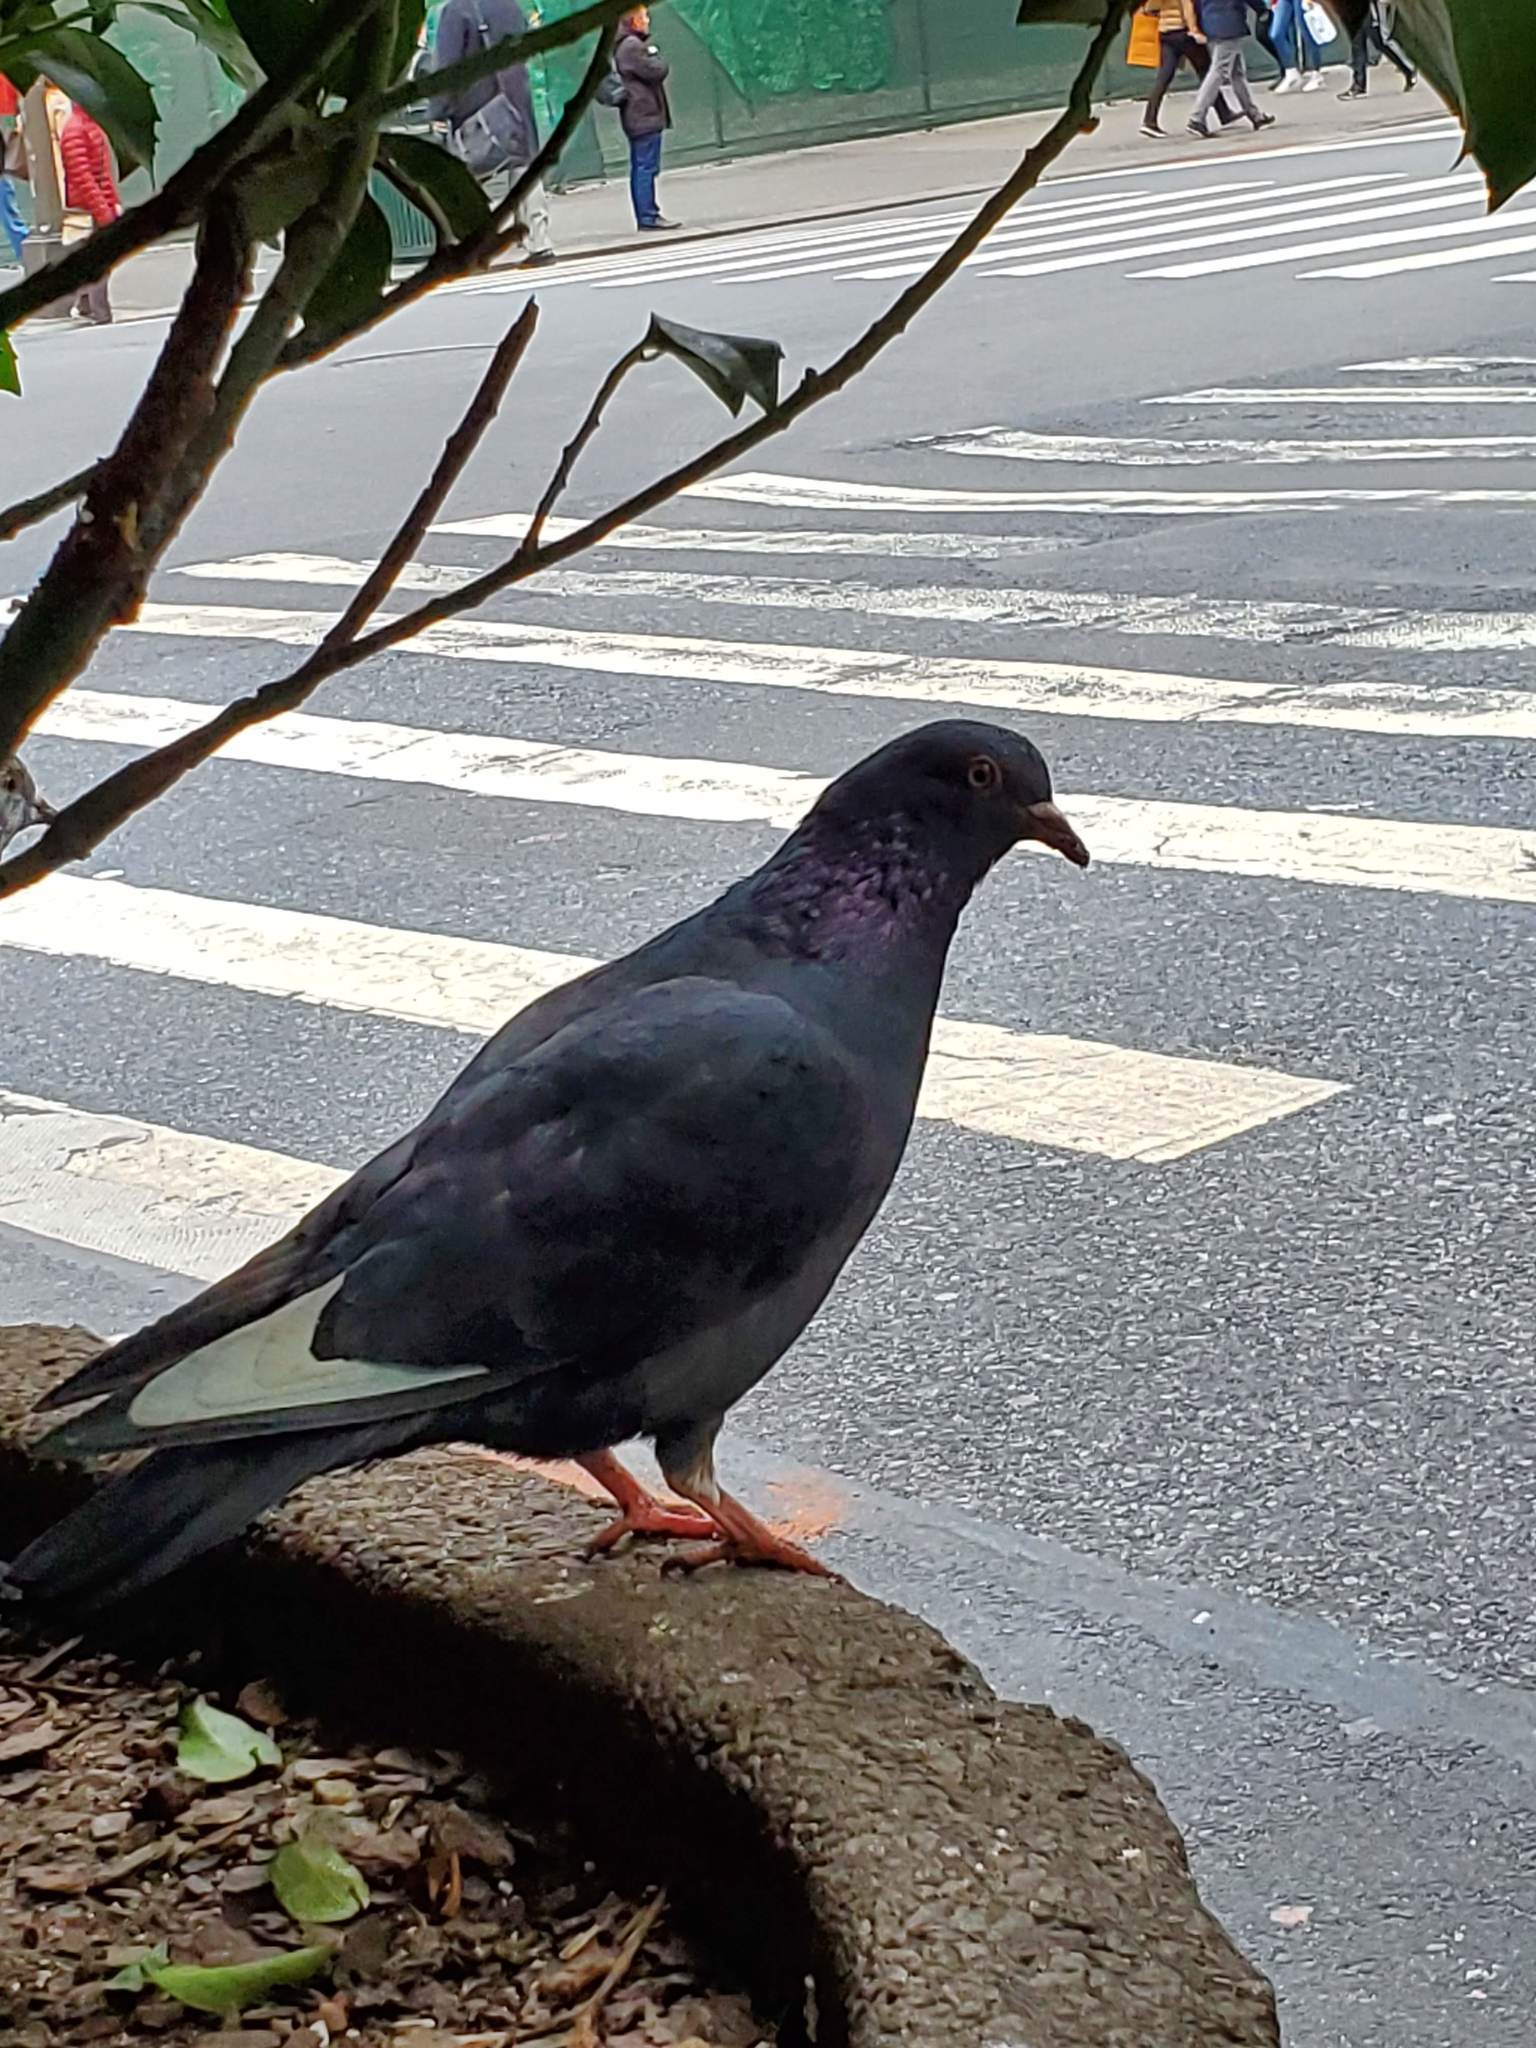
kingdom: Animalia
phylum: Chordata
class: Aves
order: Columbiformes
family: Columbidae
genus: Columba
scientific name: Columba livia
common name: Rock pigeon
